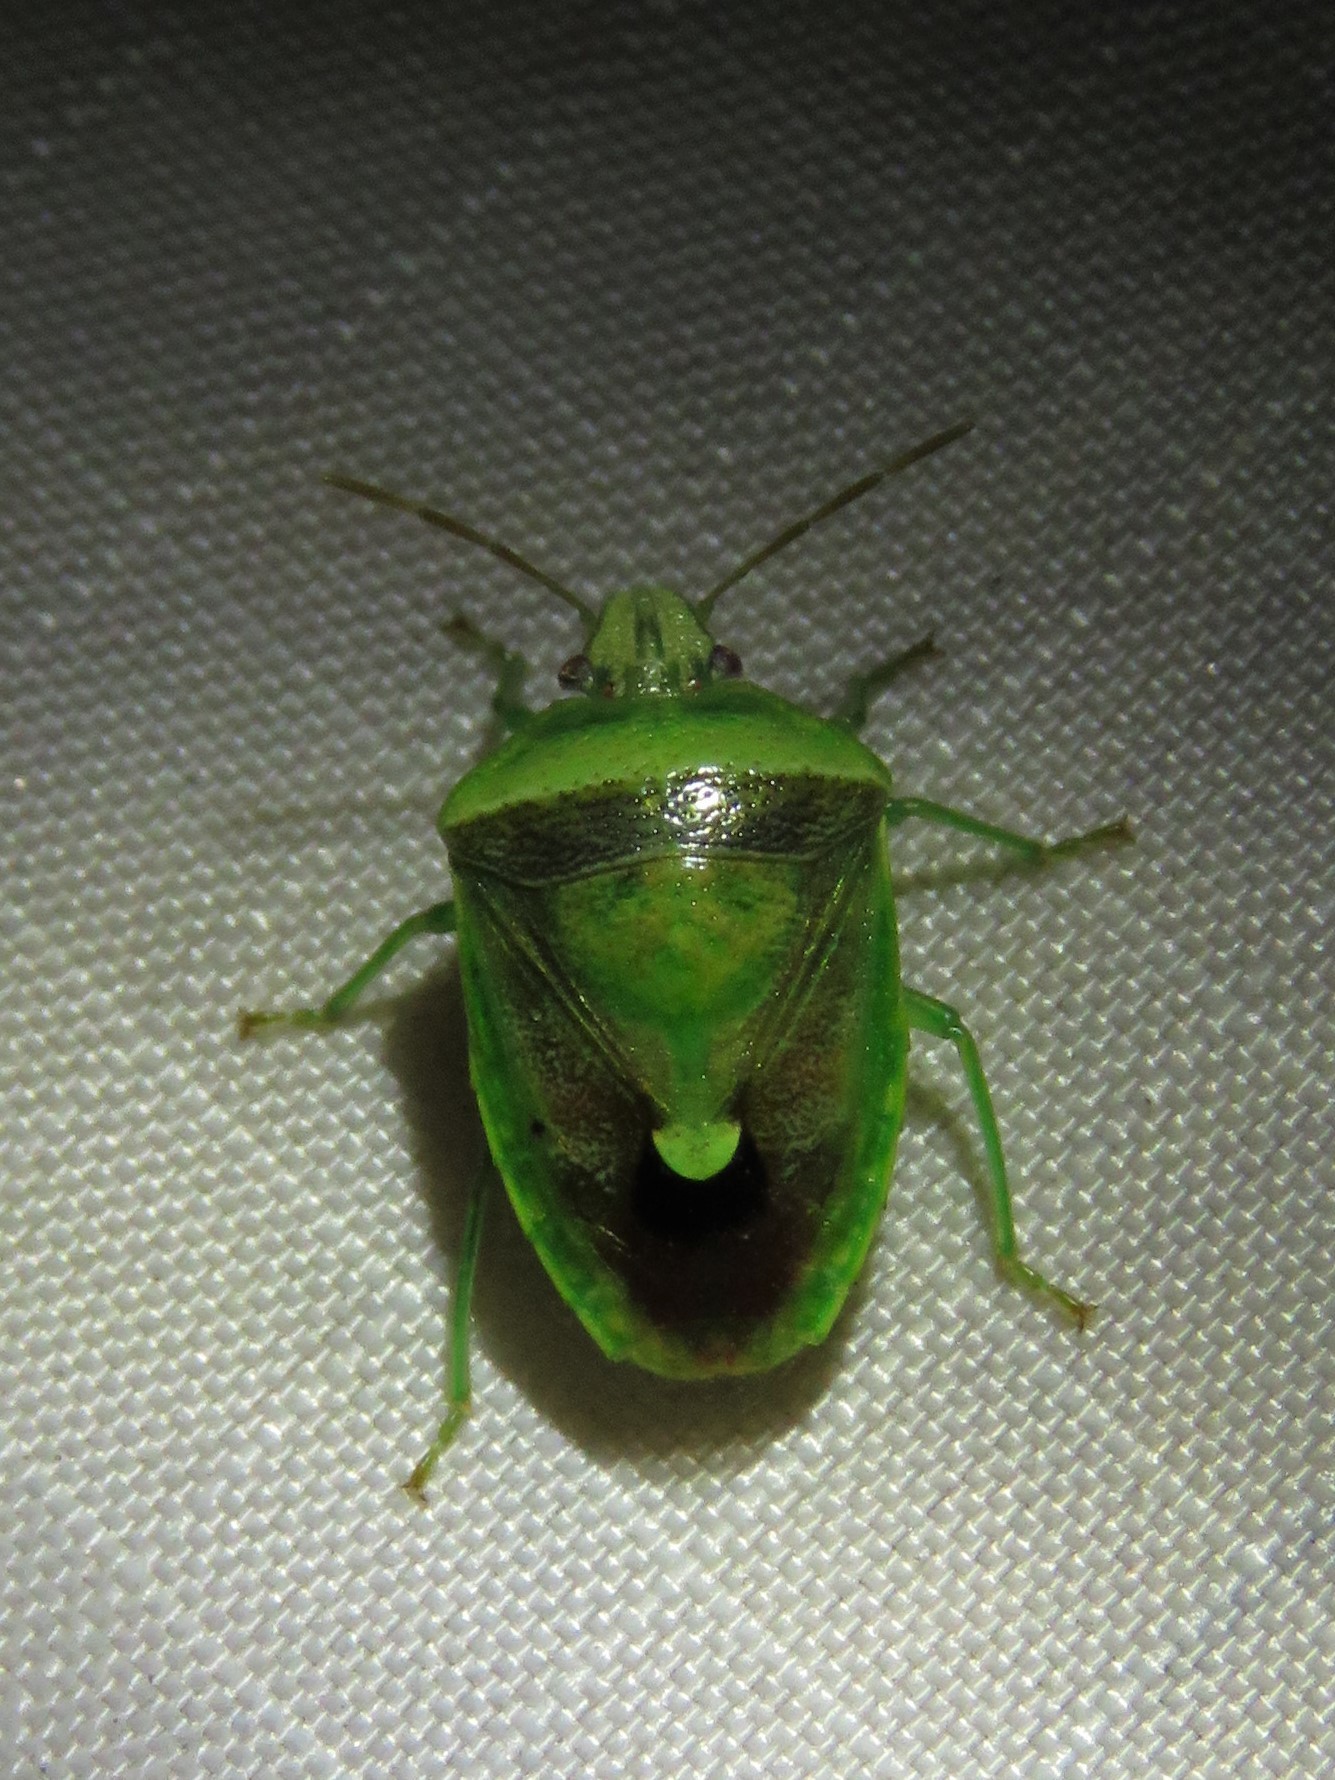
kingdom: Animalia
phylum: Arthropoda
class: Insecta
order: Hemiptera
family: Pentatomidae
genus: Banasa
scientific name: Banasa dimidiata
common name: Green burgundy stink bug
